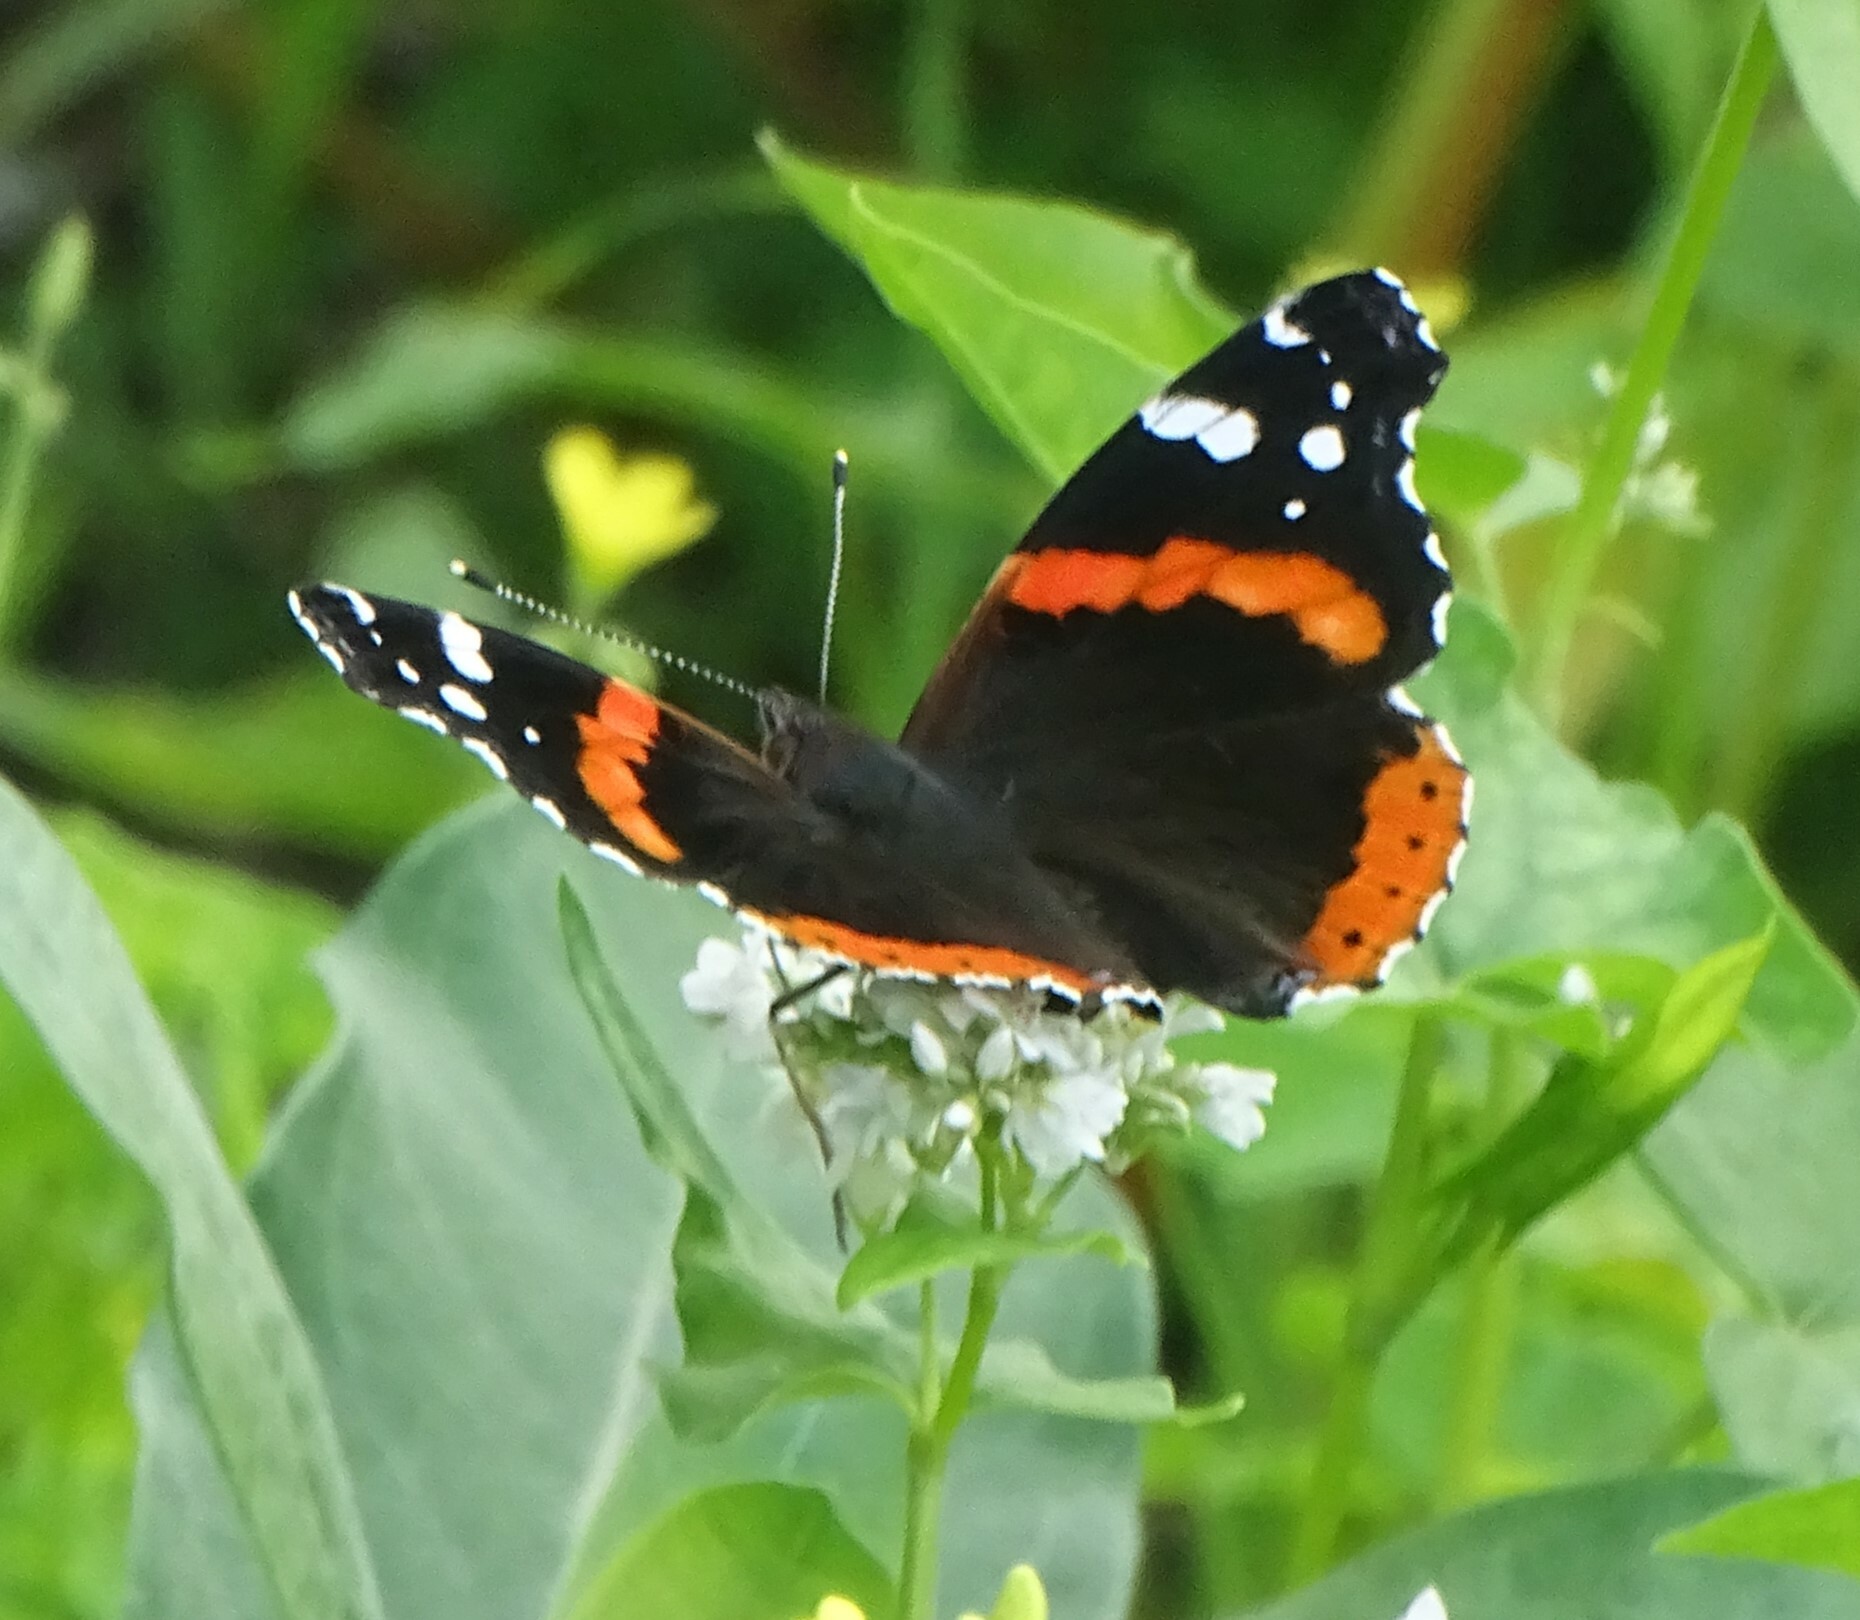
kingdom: Animalia
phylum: Arthropoda
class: Insecta
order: Lepidoptera
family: Nymphalidae
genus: Vanessa
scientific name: Vanessa atalanta
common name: Red admiral
